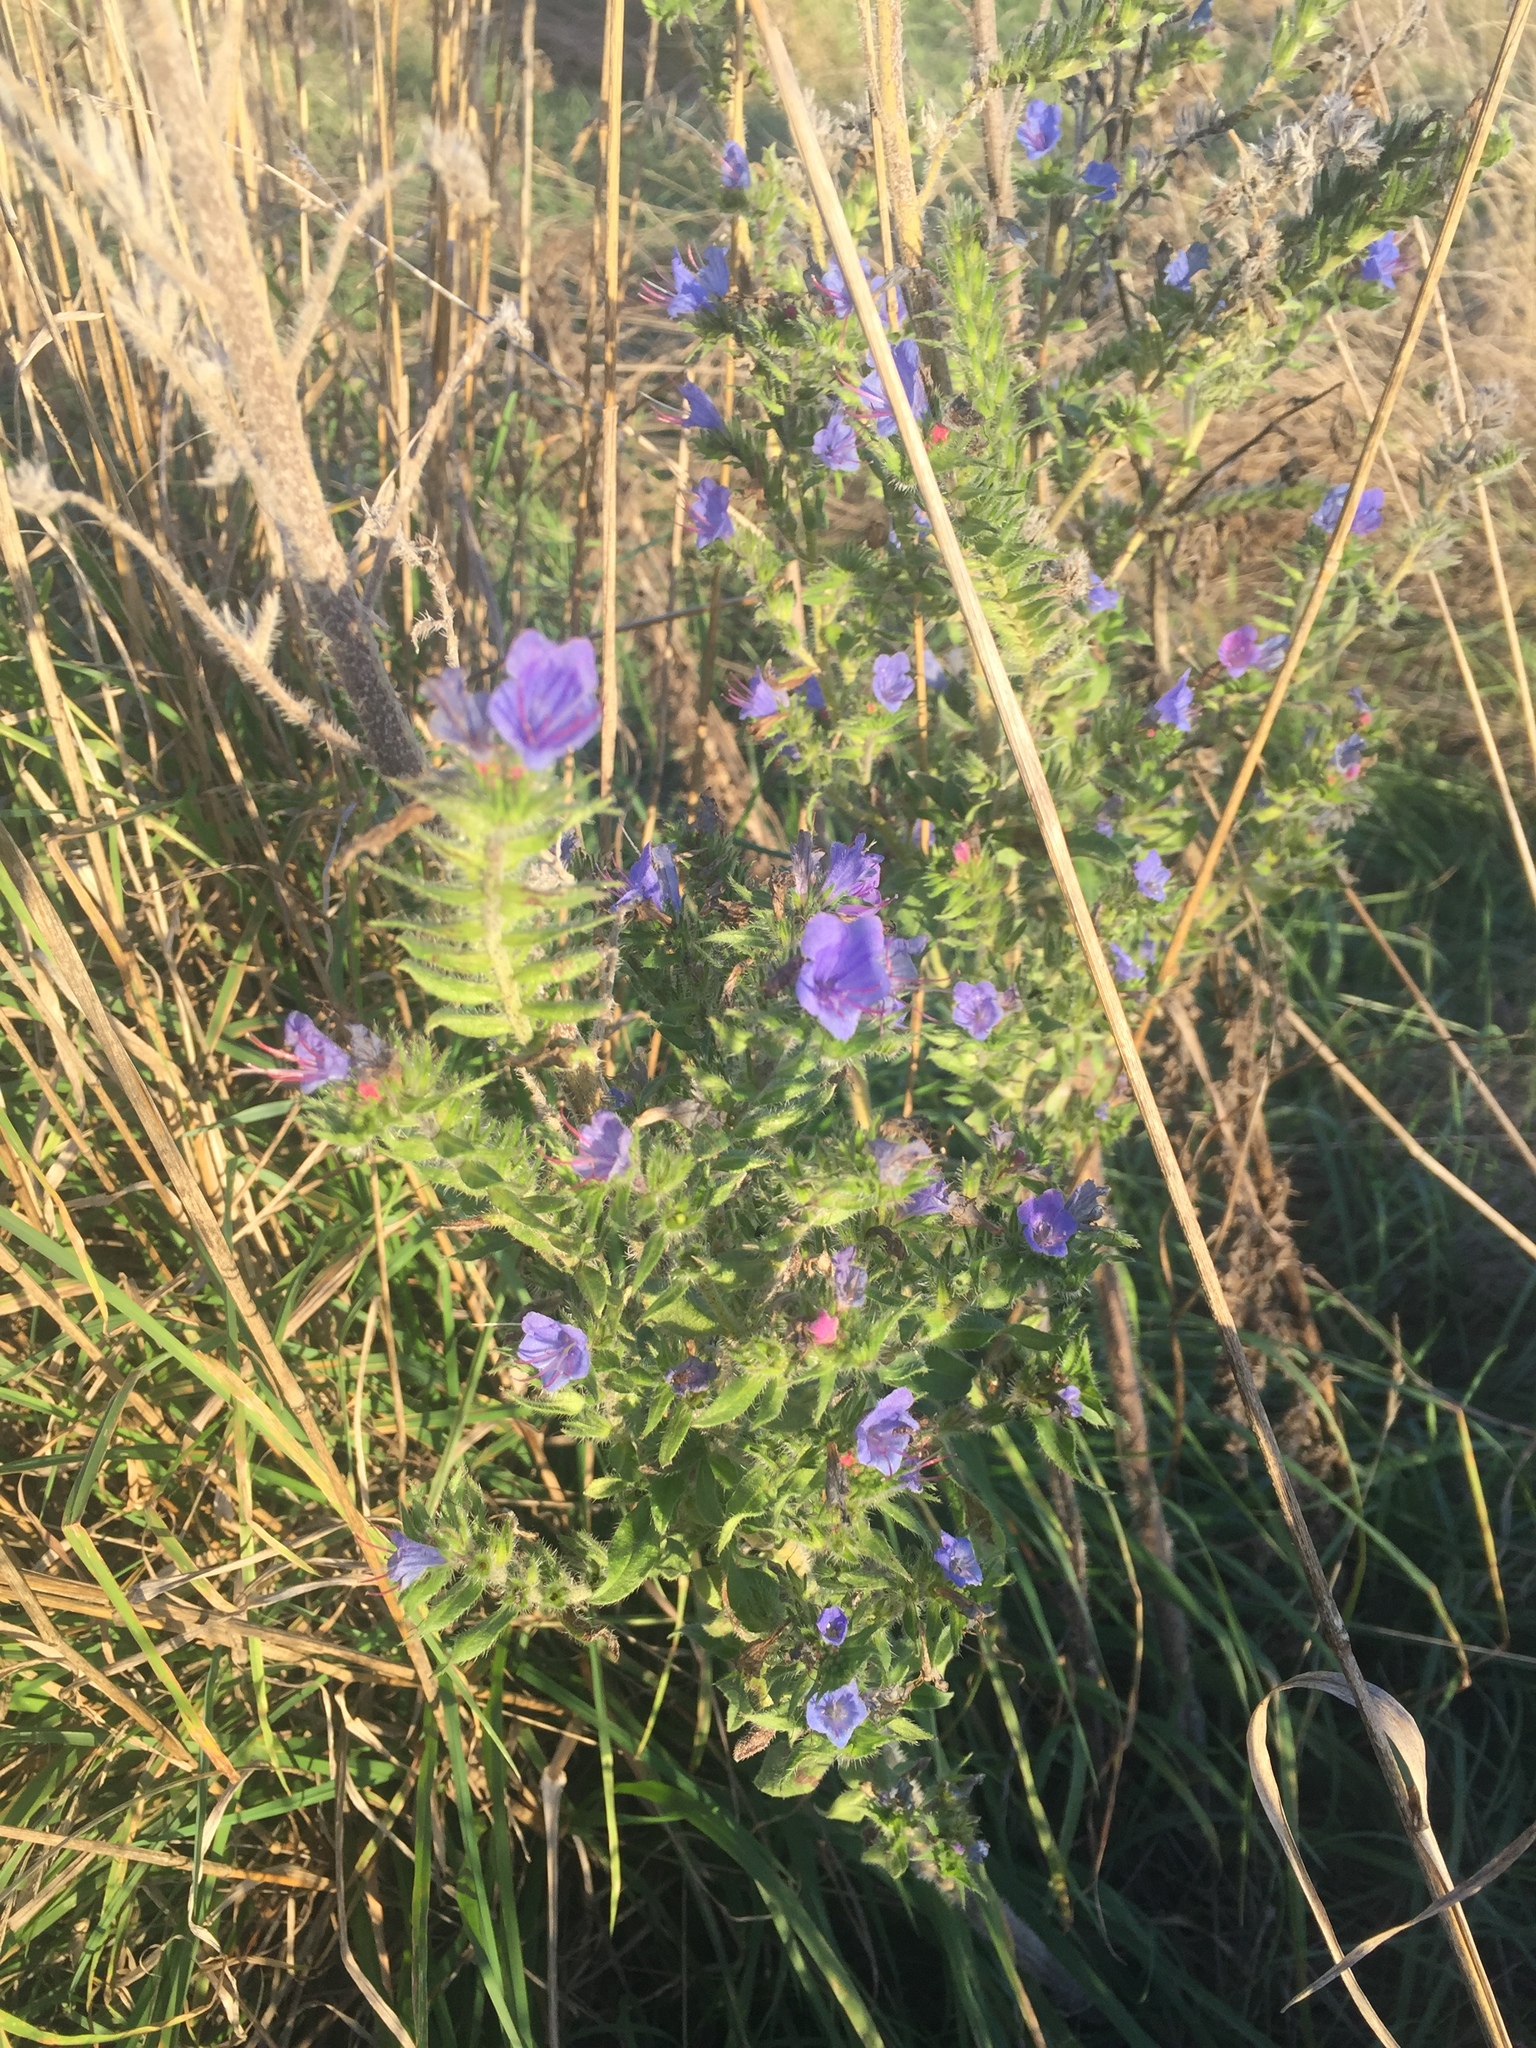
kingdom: Plantae
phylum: Tracheophyta
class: Magnoliopsida
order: Boraginales
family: Boraginaceae
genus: Echium
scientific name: Echium vulgare
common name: Common viper's bugloss
